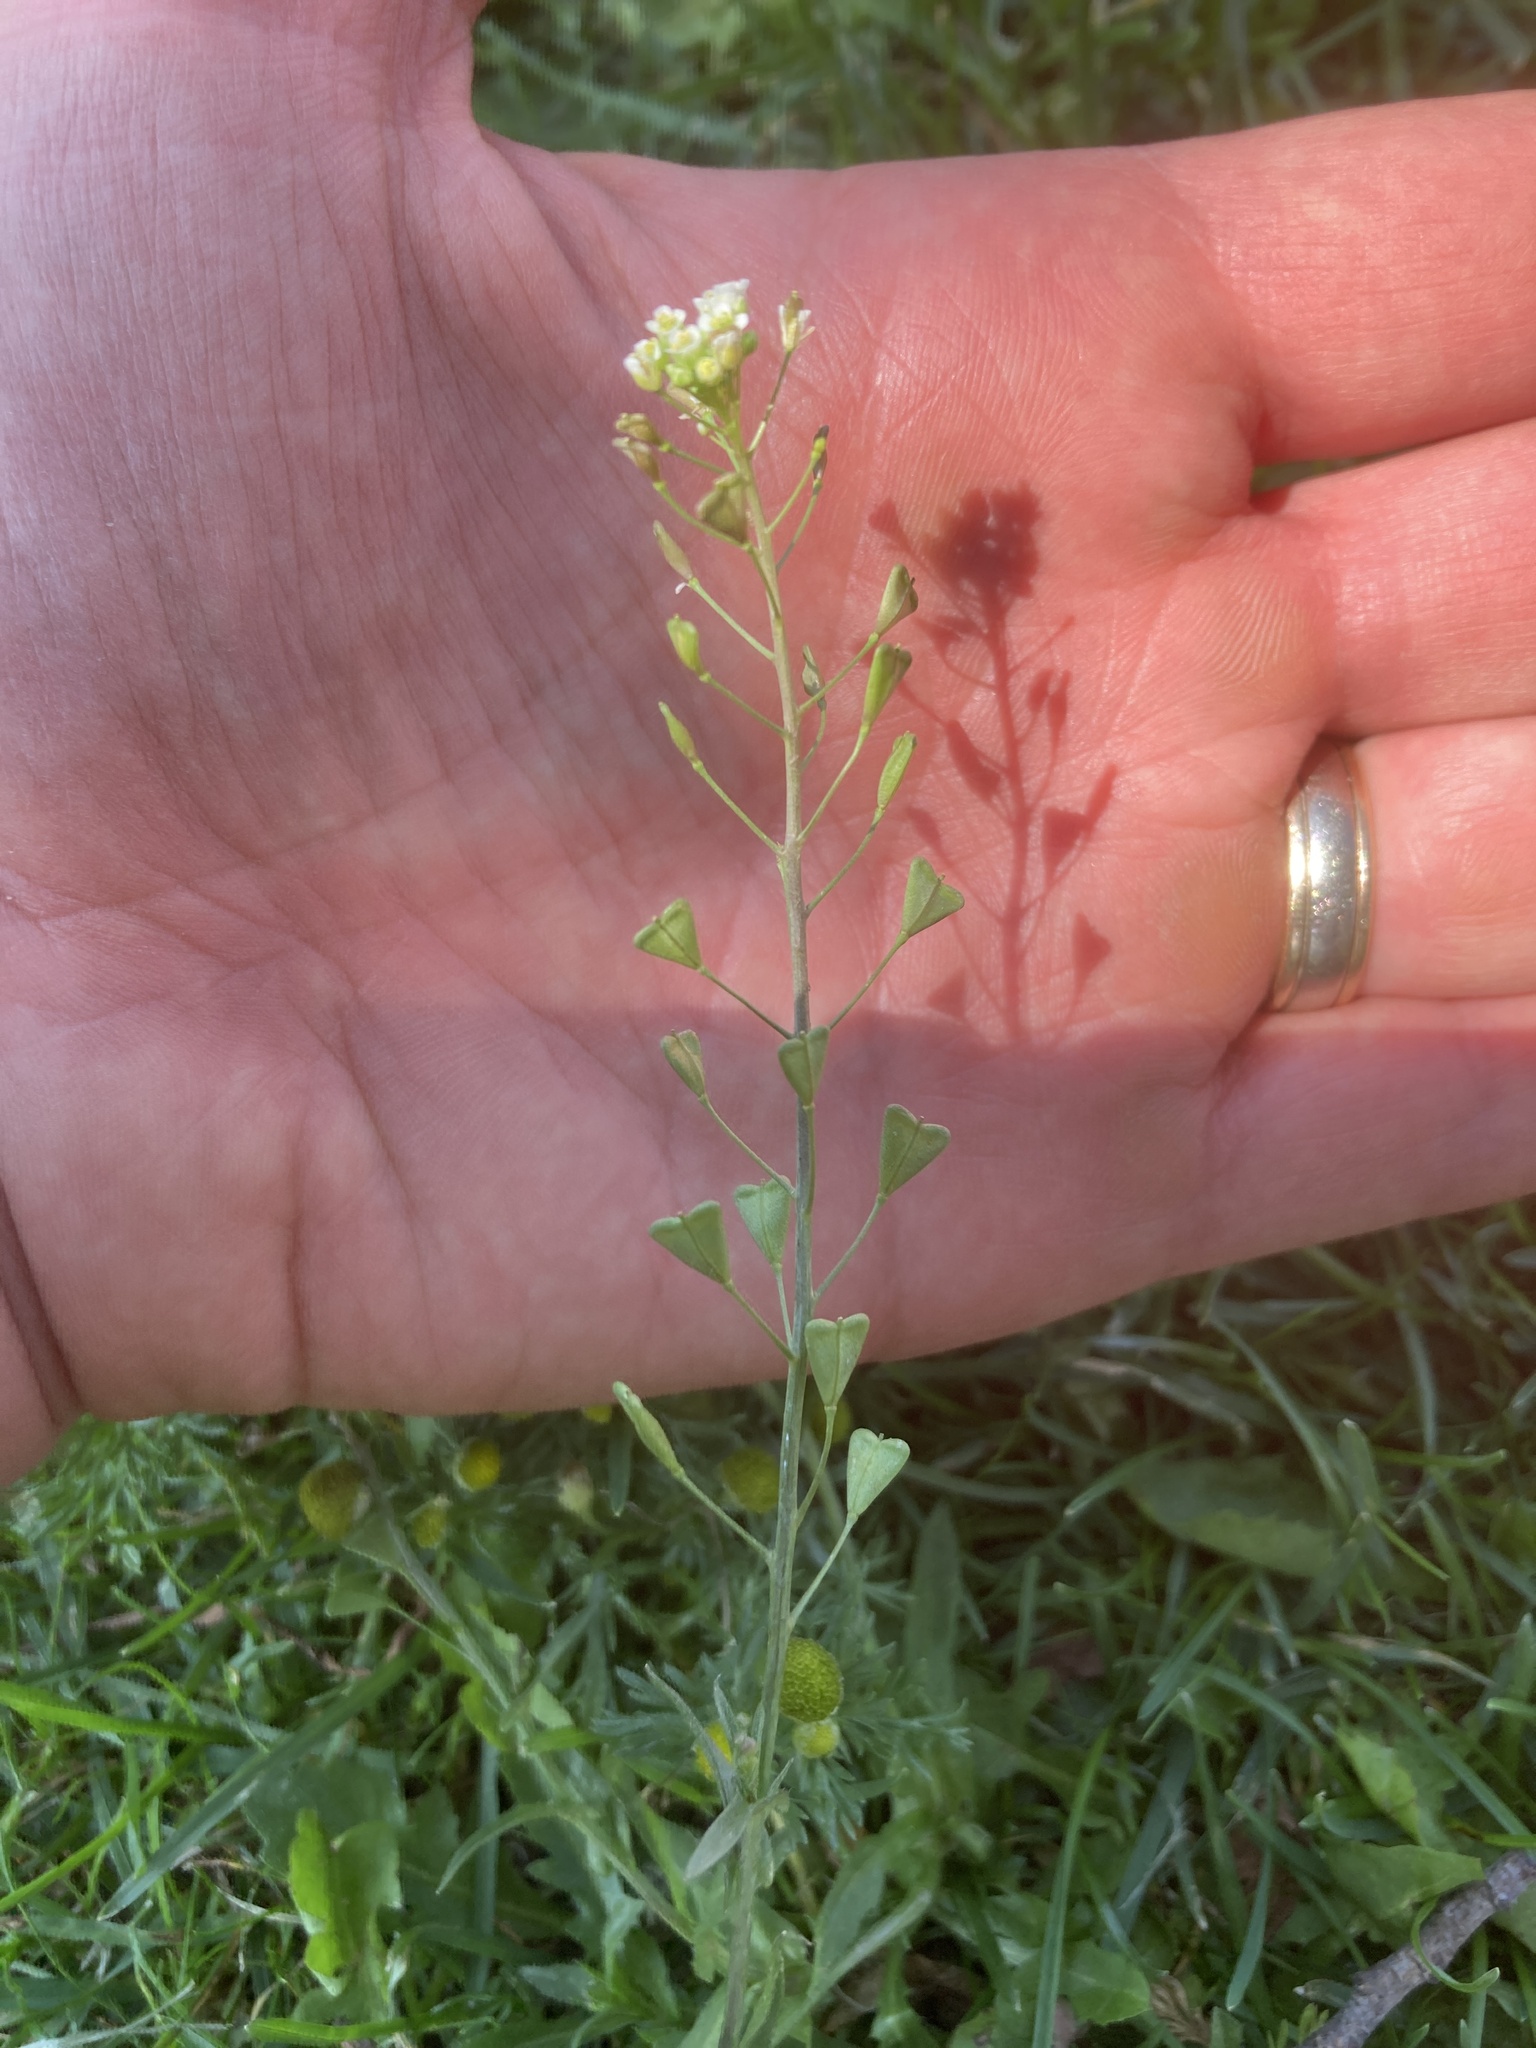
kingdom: Plantae
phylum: Tracheophyta
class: Magnoliopsida
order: Brassicales
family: Brassicaceae
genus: Capsella
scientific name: Capsella bursa-pastoris
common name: Shepherd's purse
